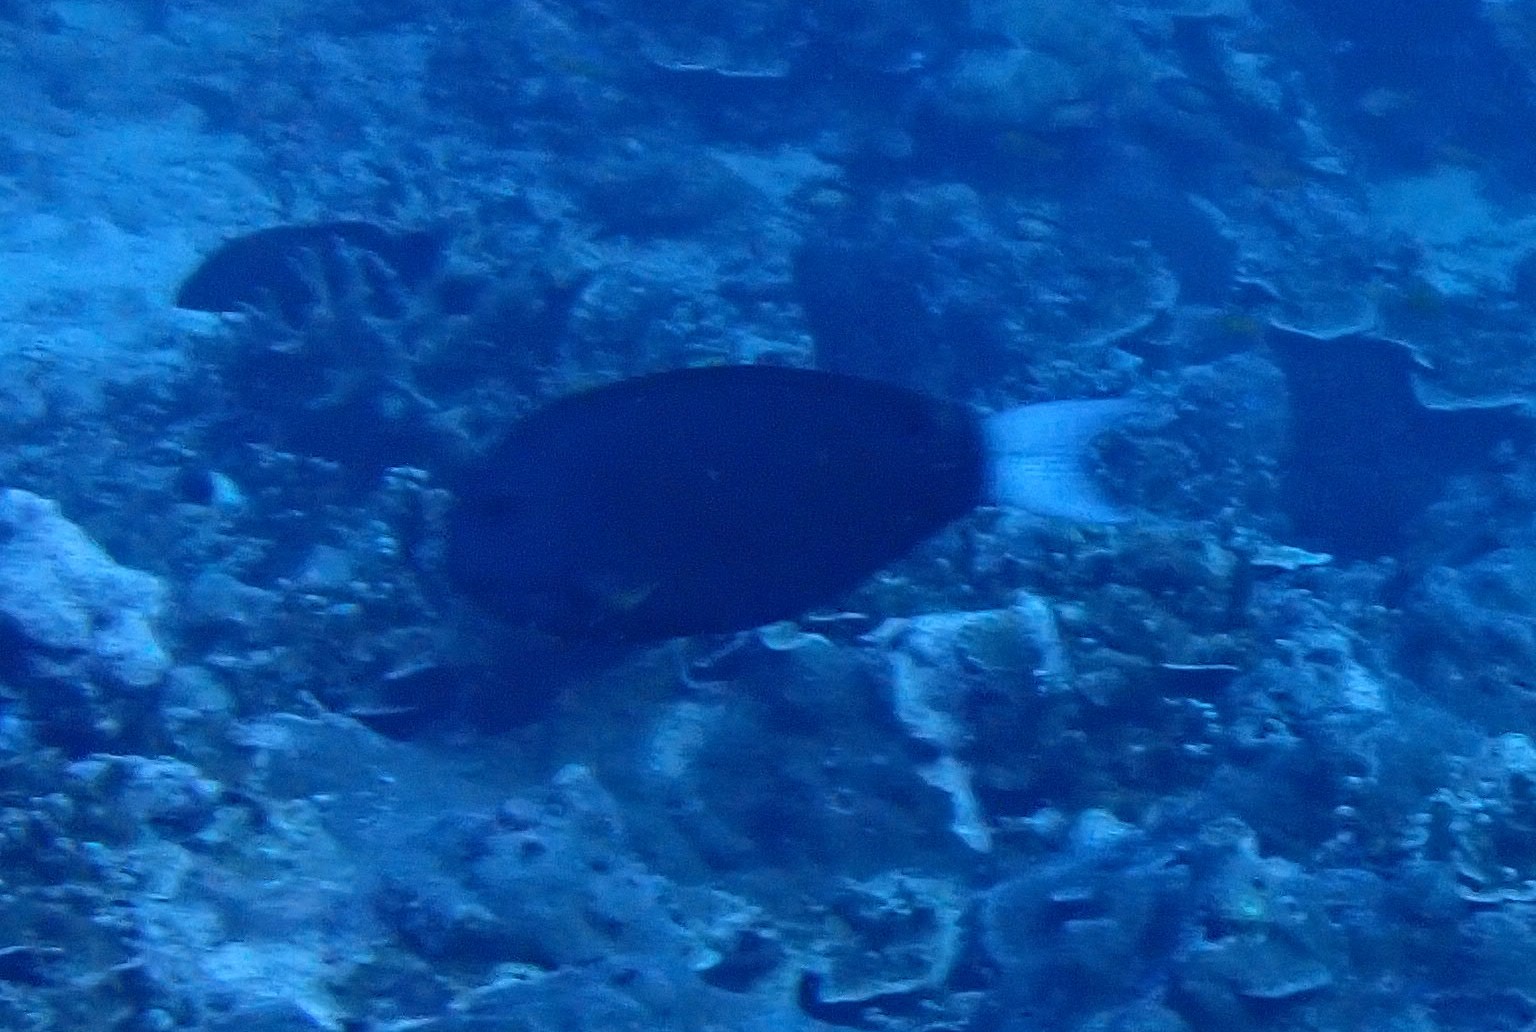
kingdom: Animalia
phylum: Chordata
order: Perciformes
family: Acanthuridae
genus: Acanthurus
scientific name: Acanthurus thompsoni
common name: Chocolate surgeonfish
